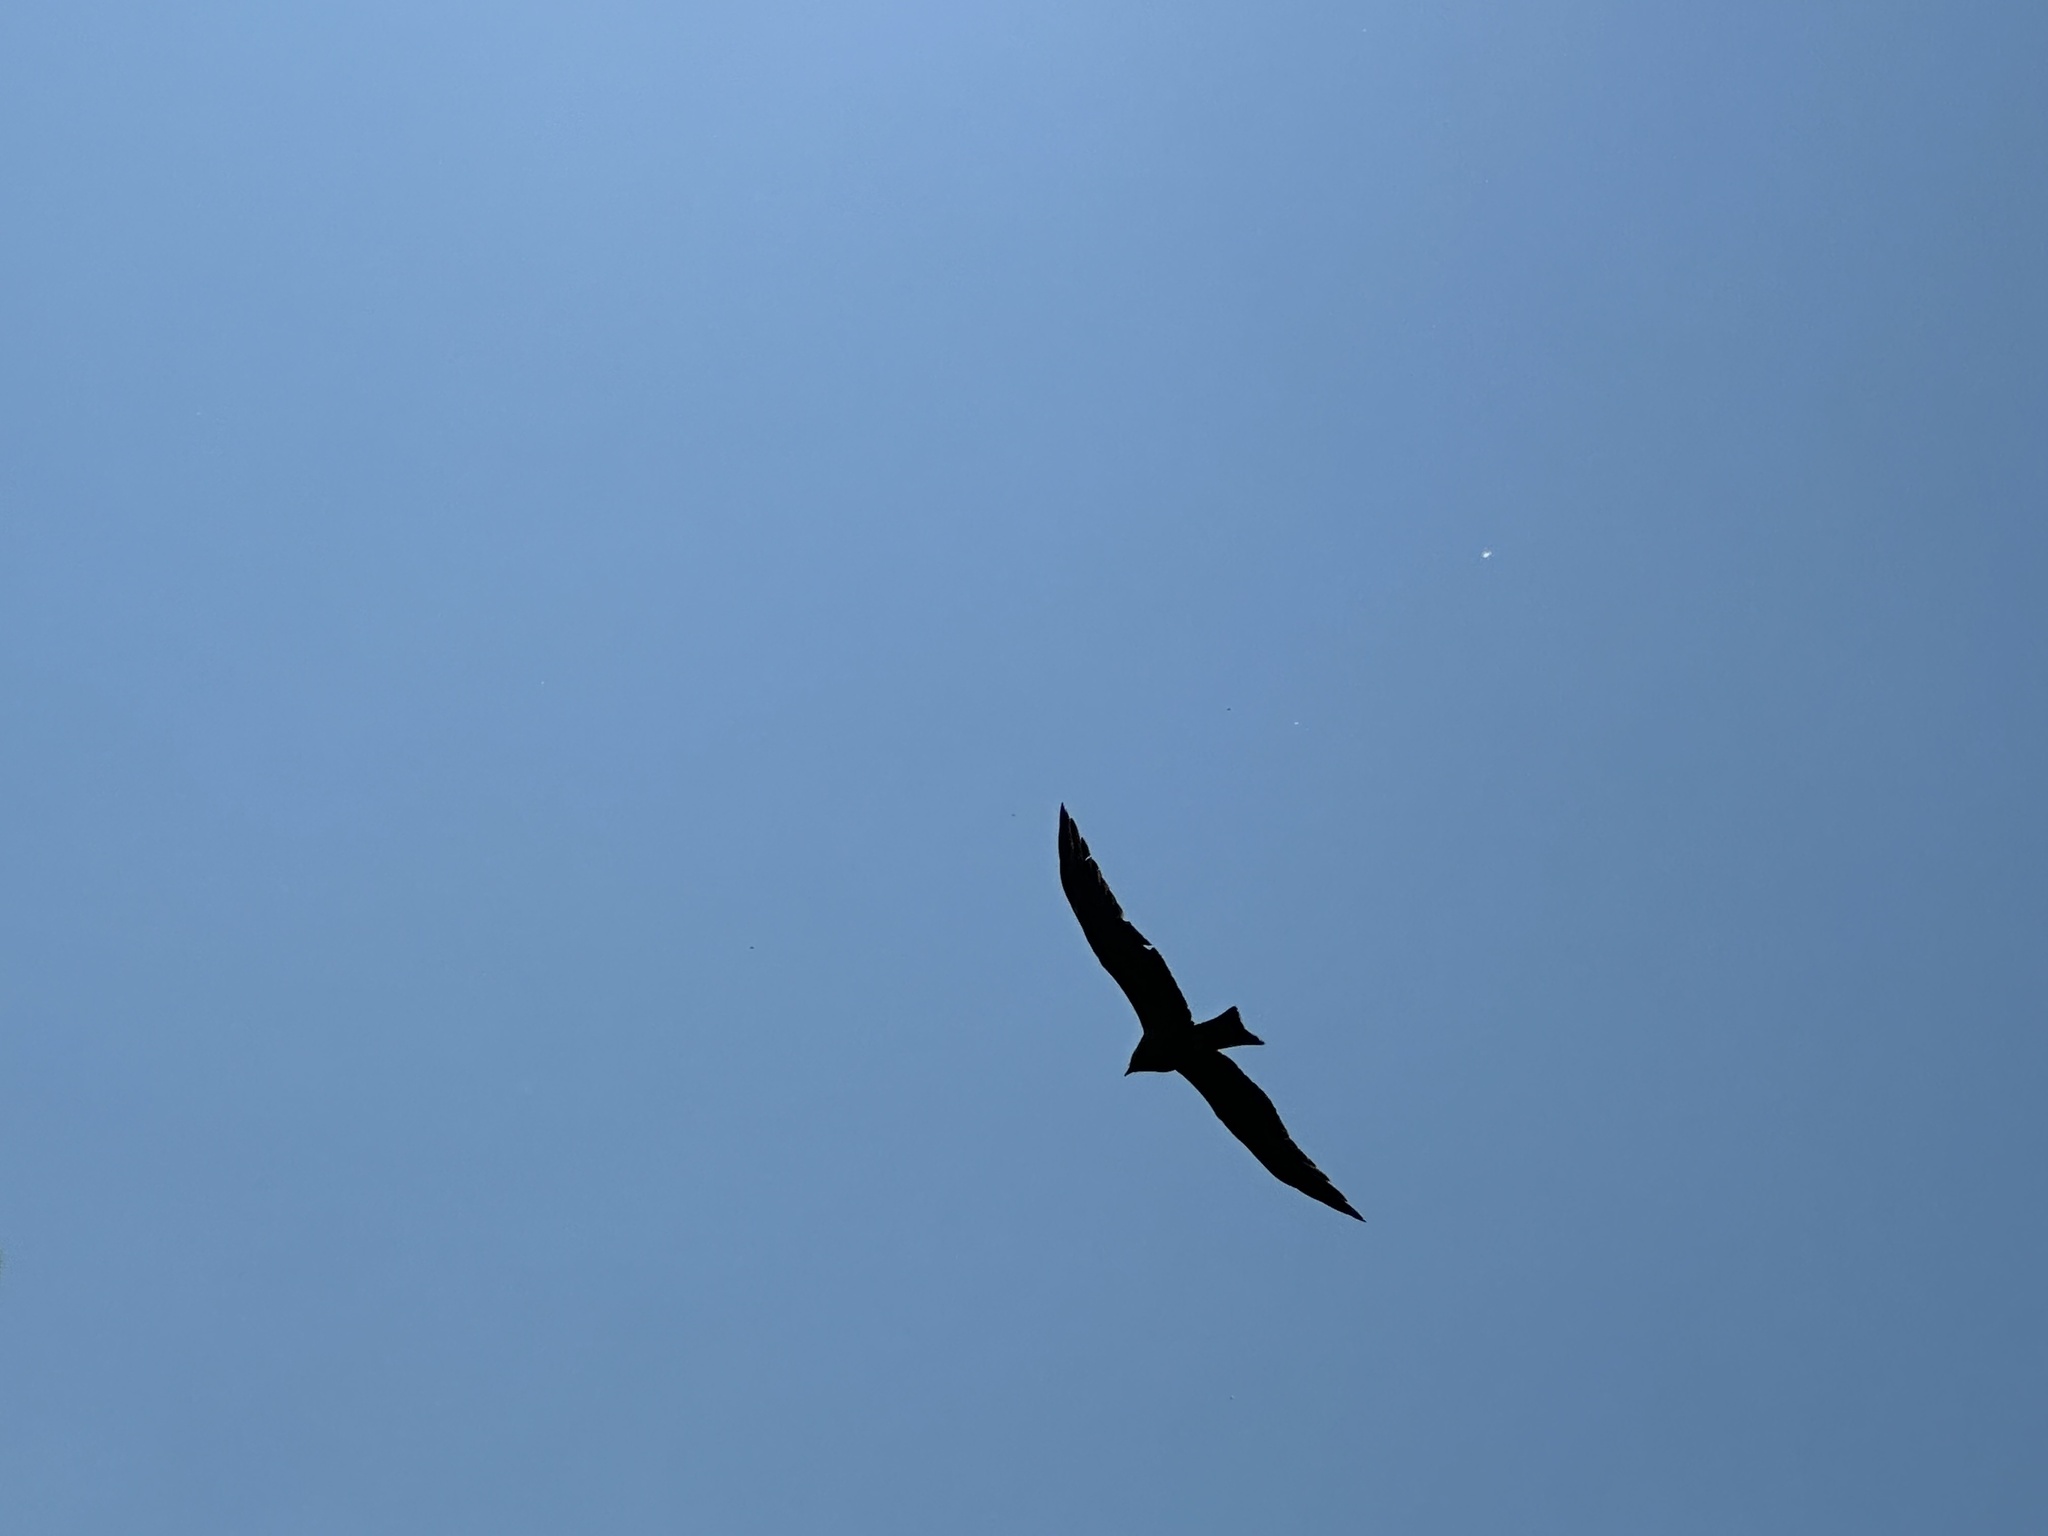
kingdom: Animalia
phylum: Chordata
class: Aves
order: Accipitriformes
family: Accipitridae
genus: Milvus
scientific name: Milvus migrans
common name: Black kite
